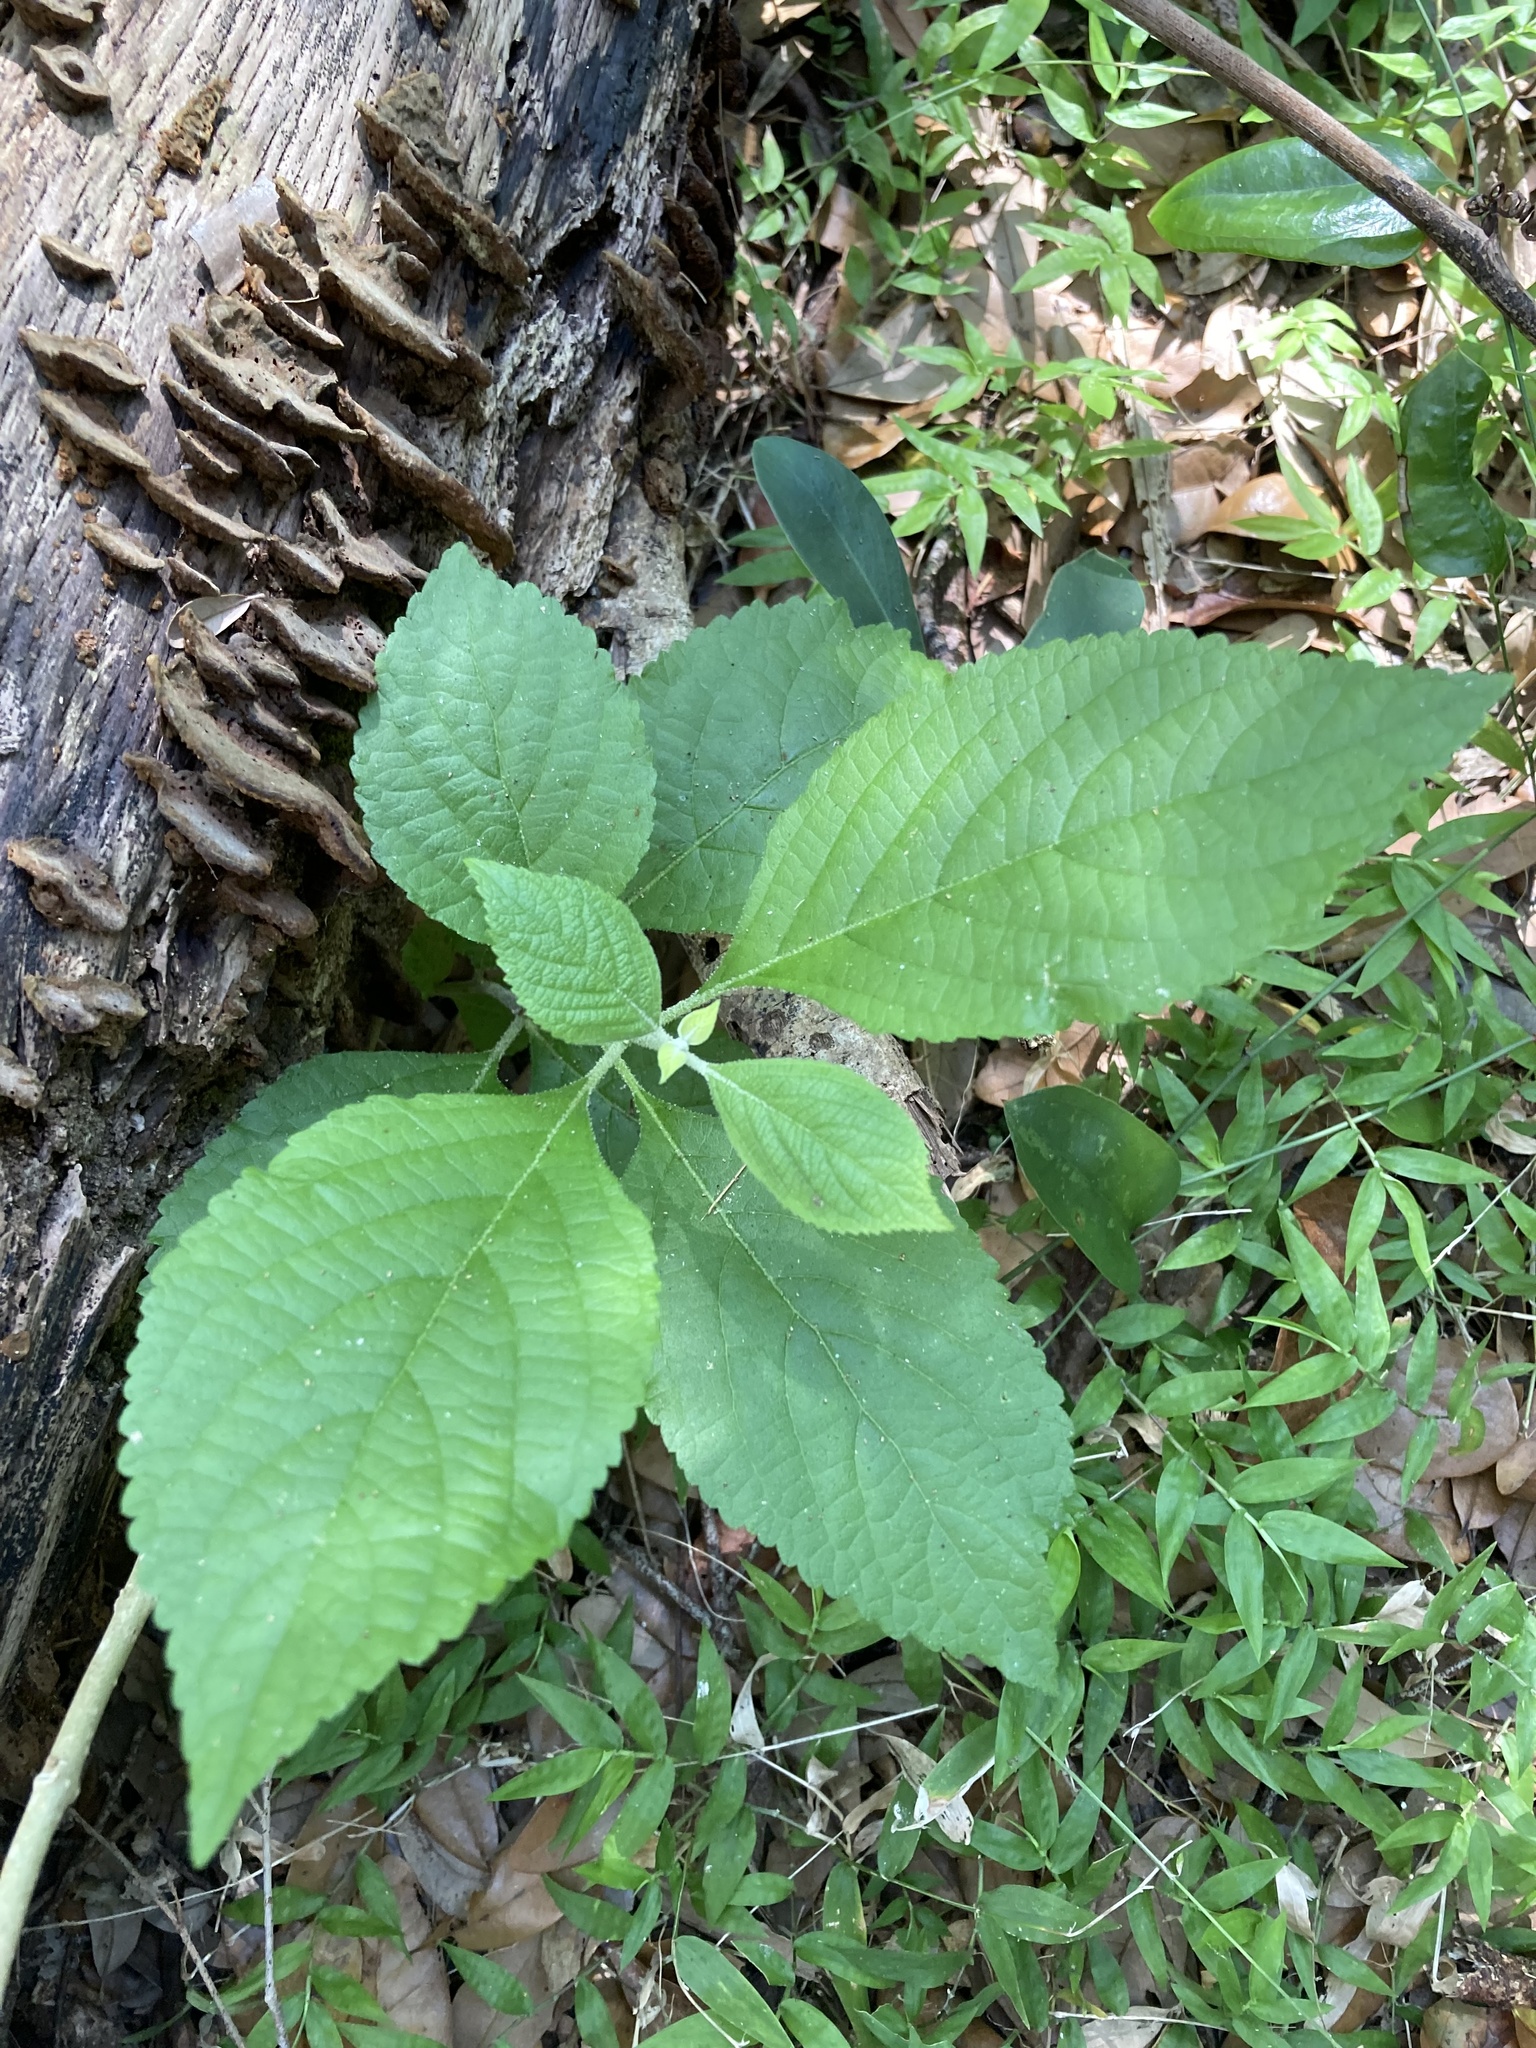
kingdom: Plantae
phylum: Tracheophyta
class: Magnoliopsida
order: Lamiales
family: Lamiaceae
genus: Callicarpa
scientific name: Callicarpa americana
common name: American beautyberry
